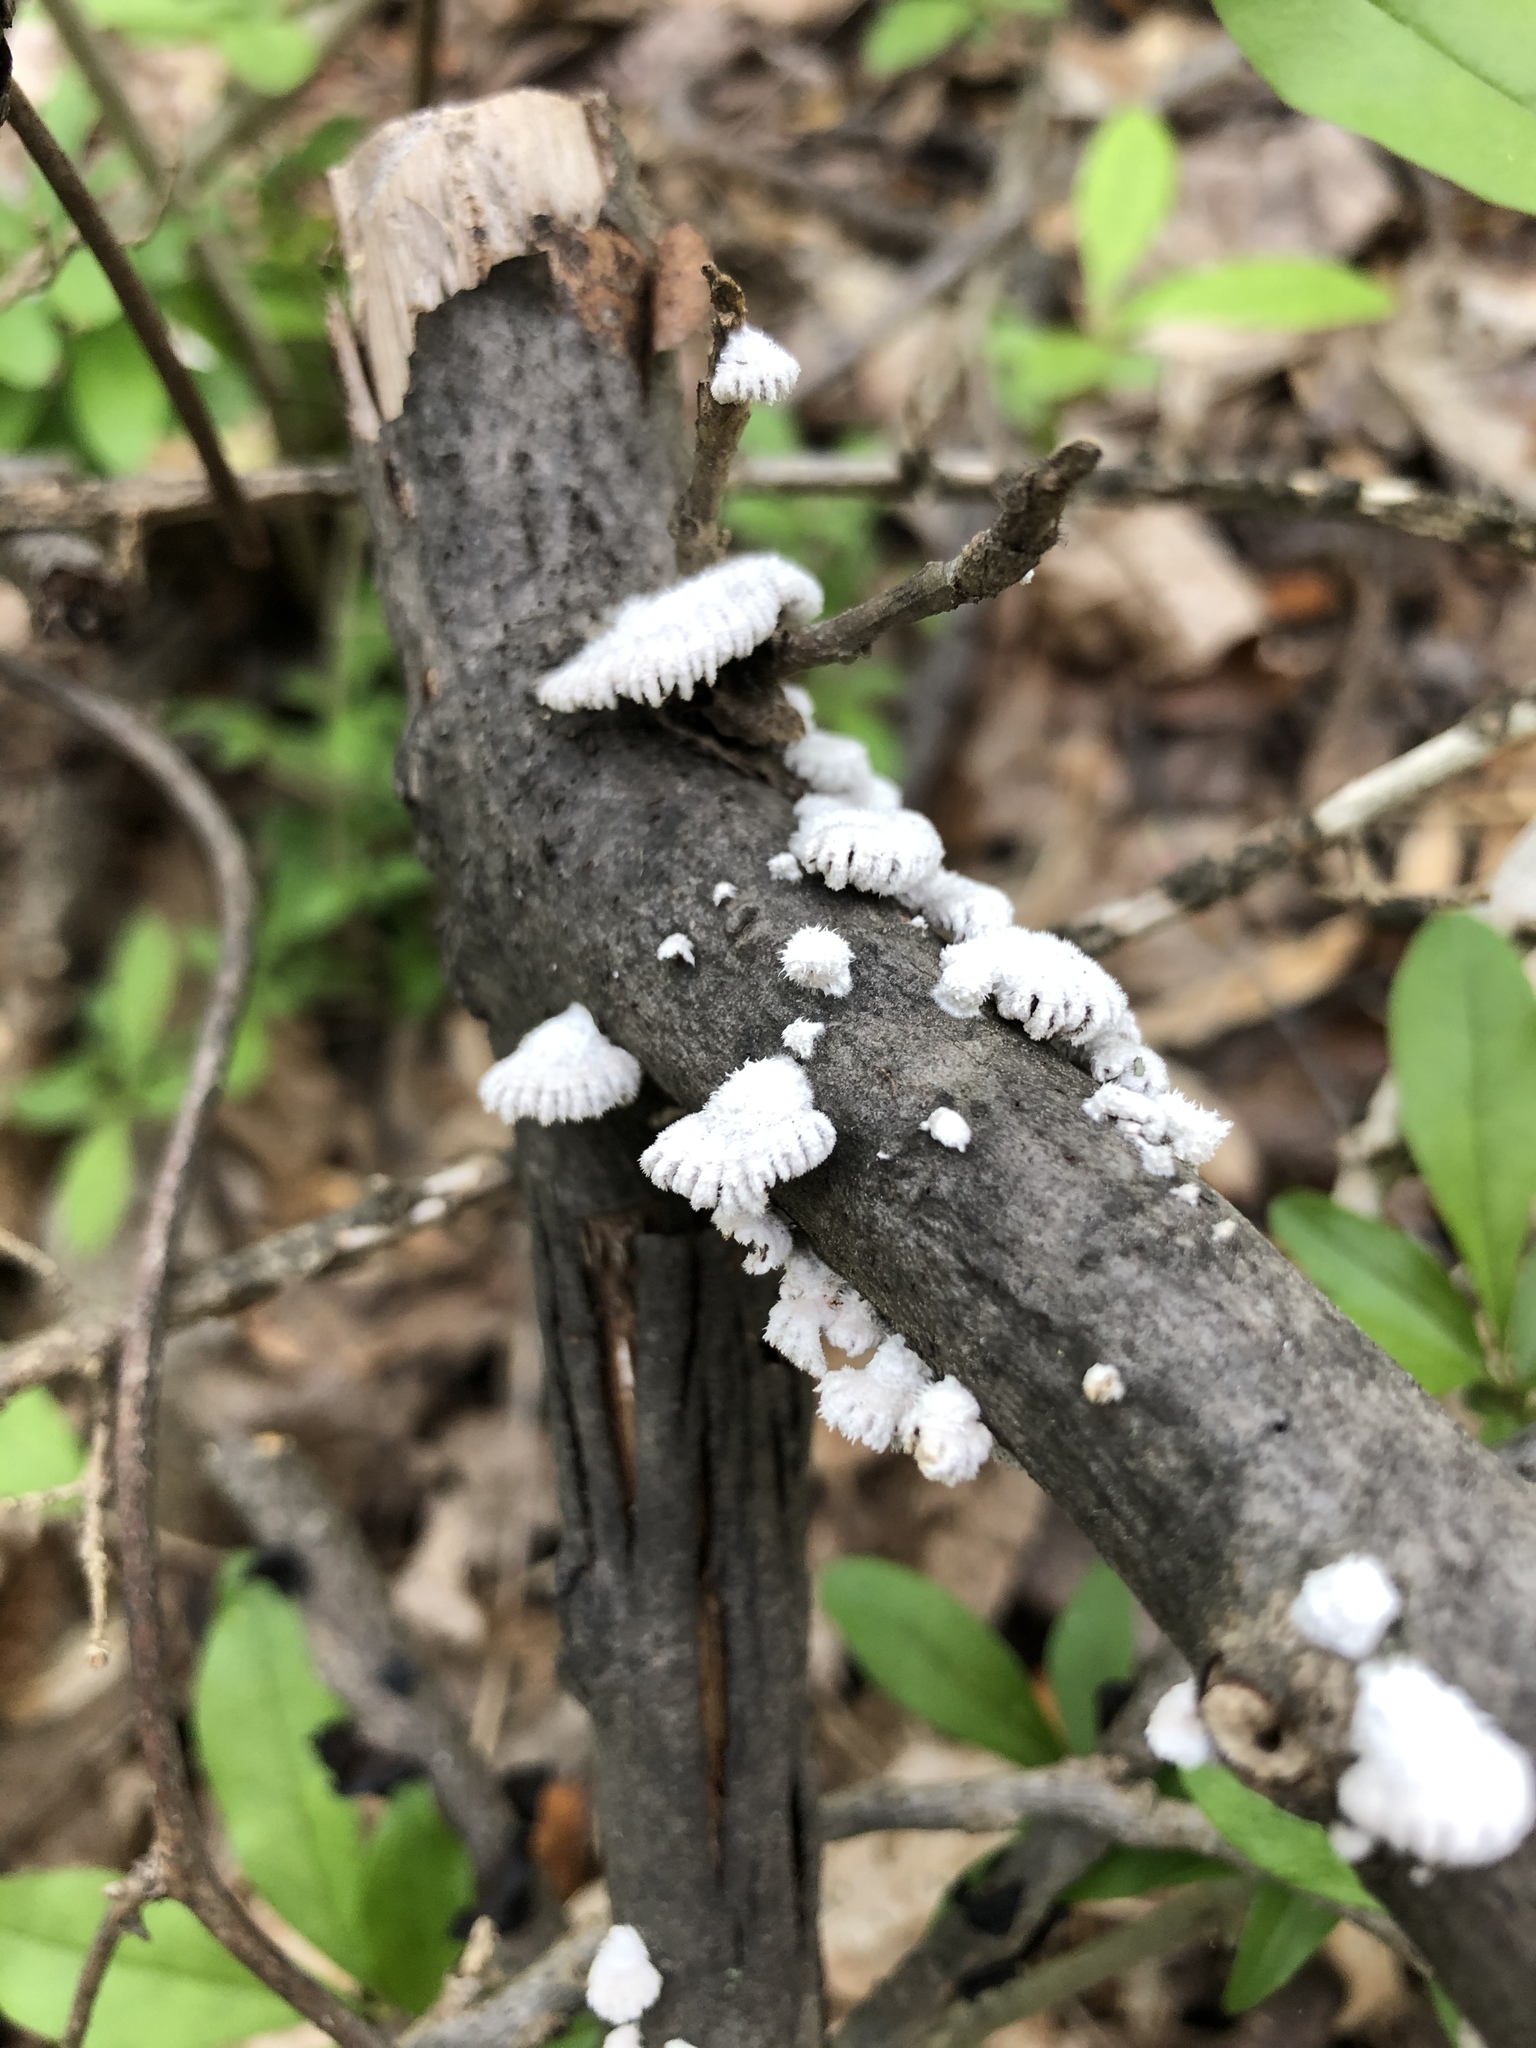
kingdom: Fungi
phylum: Basidiomycota
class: Agaricomycetes
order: Agaricales
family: Schizophyllaceae
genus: Schizophyllum
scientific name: Schizophyllum commune
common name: Common porecrust
